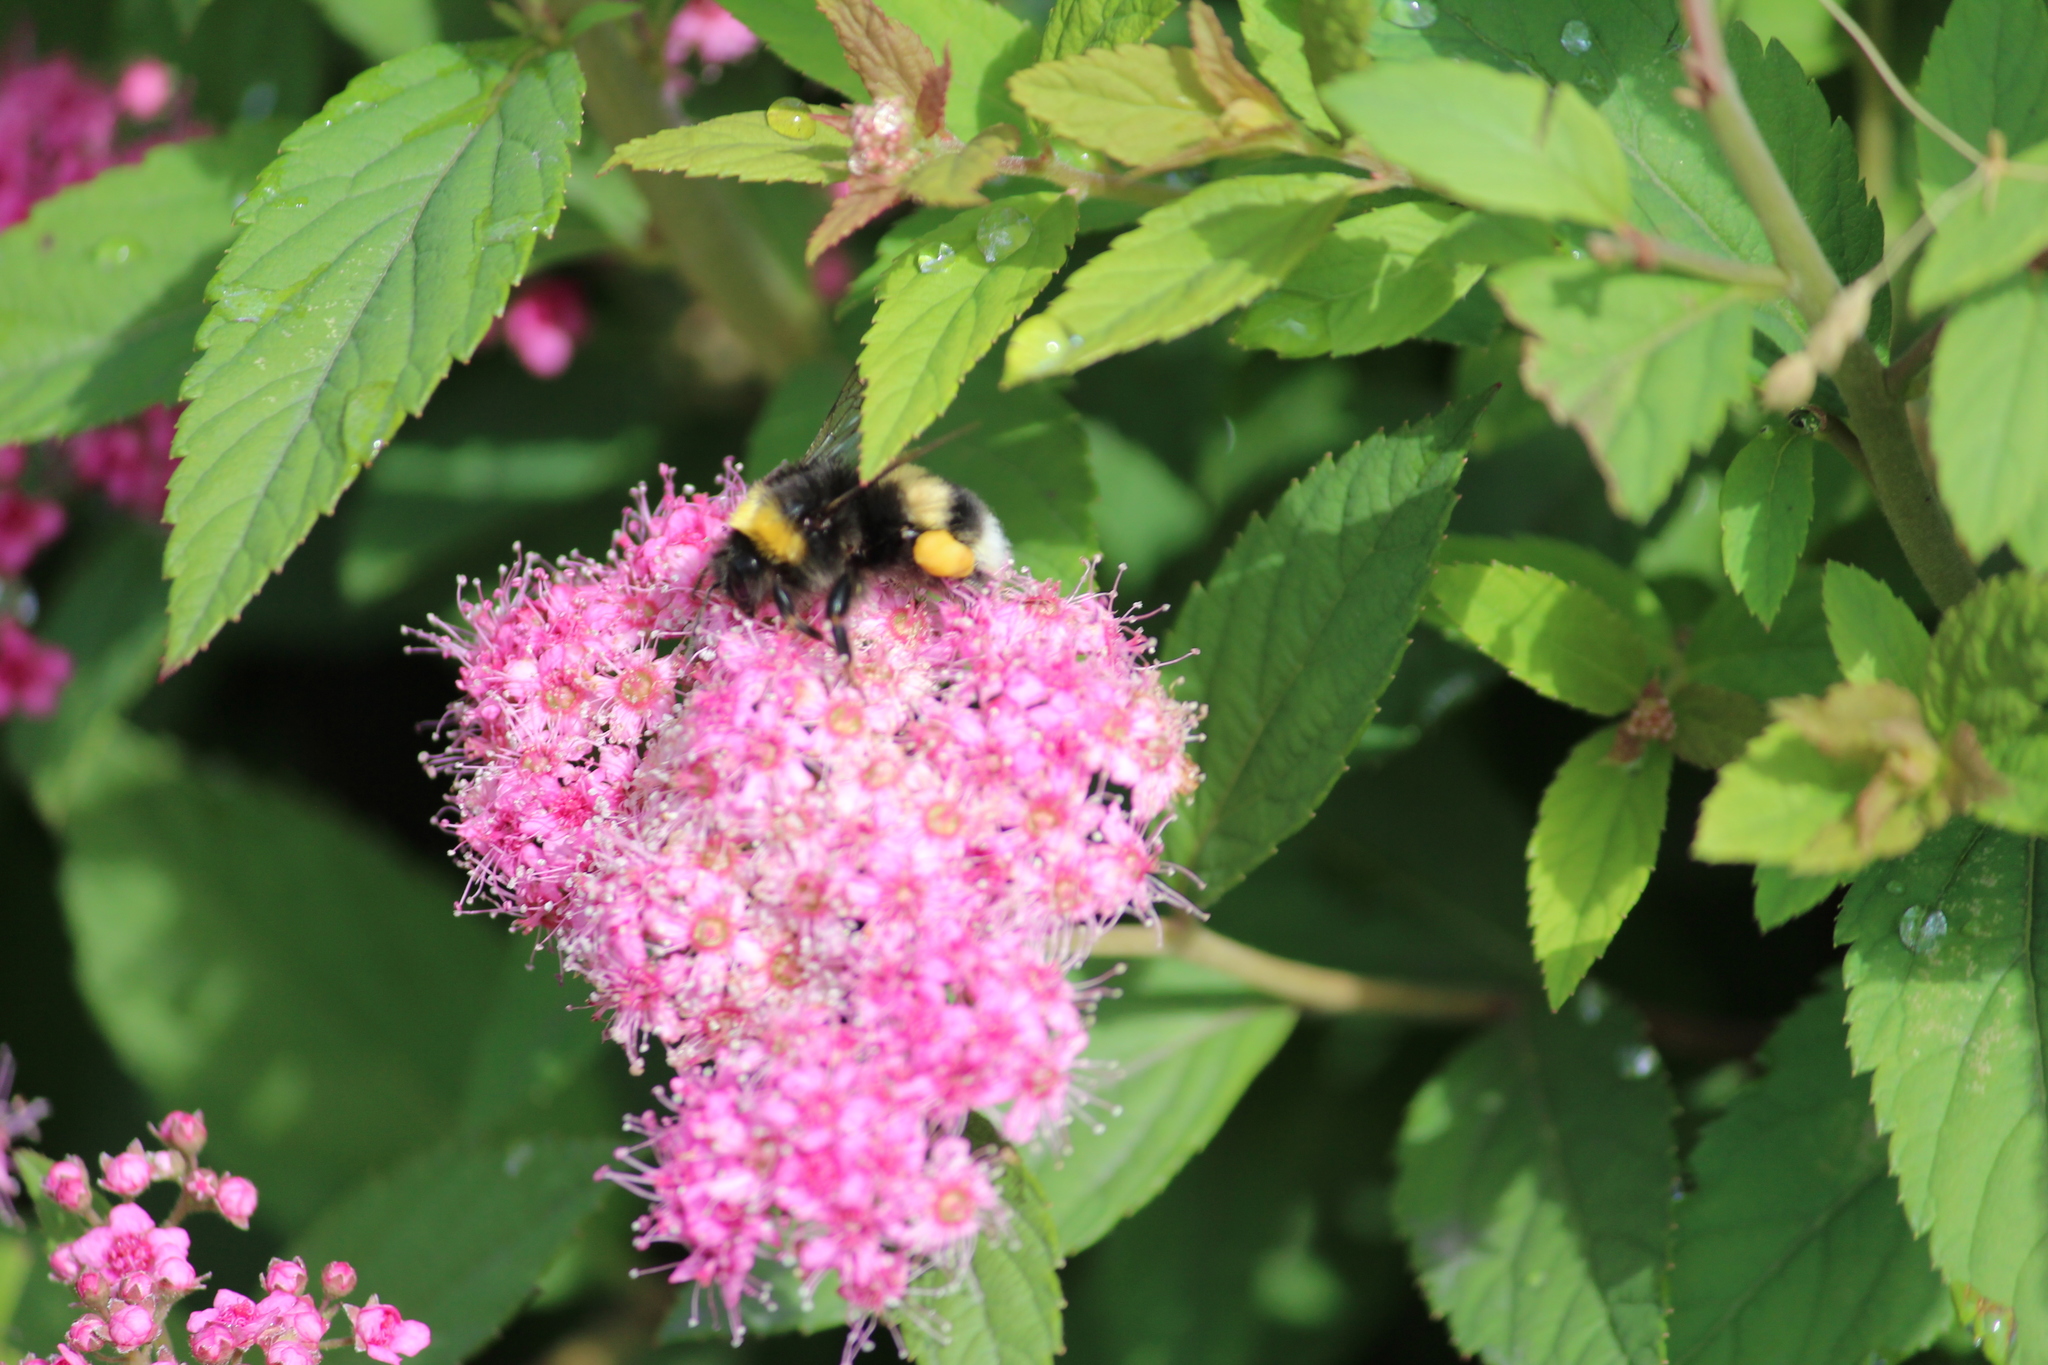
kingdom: Animalia
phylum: Arthropoda
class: Insecta
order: Hymenoptera
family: Apidae
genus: Bombus
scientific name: Bombus
